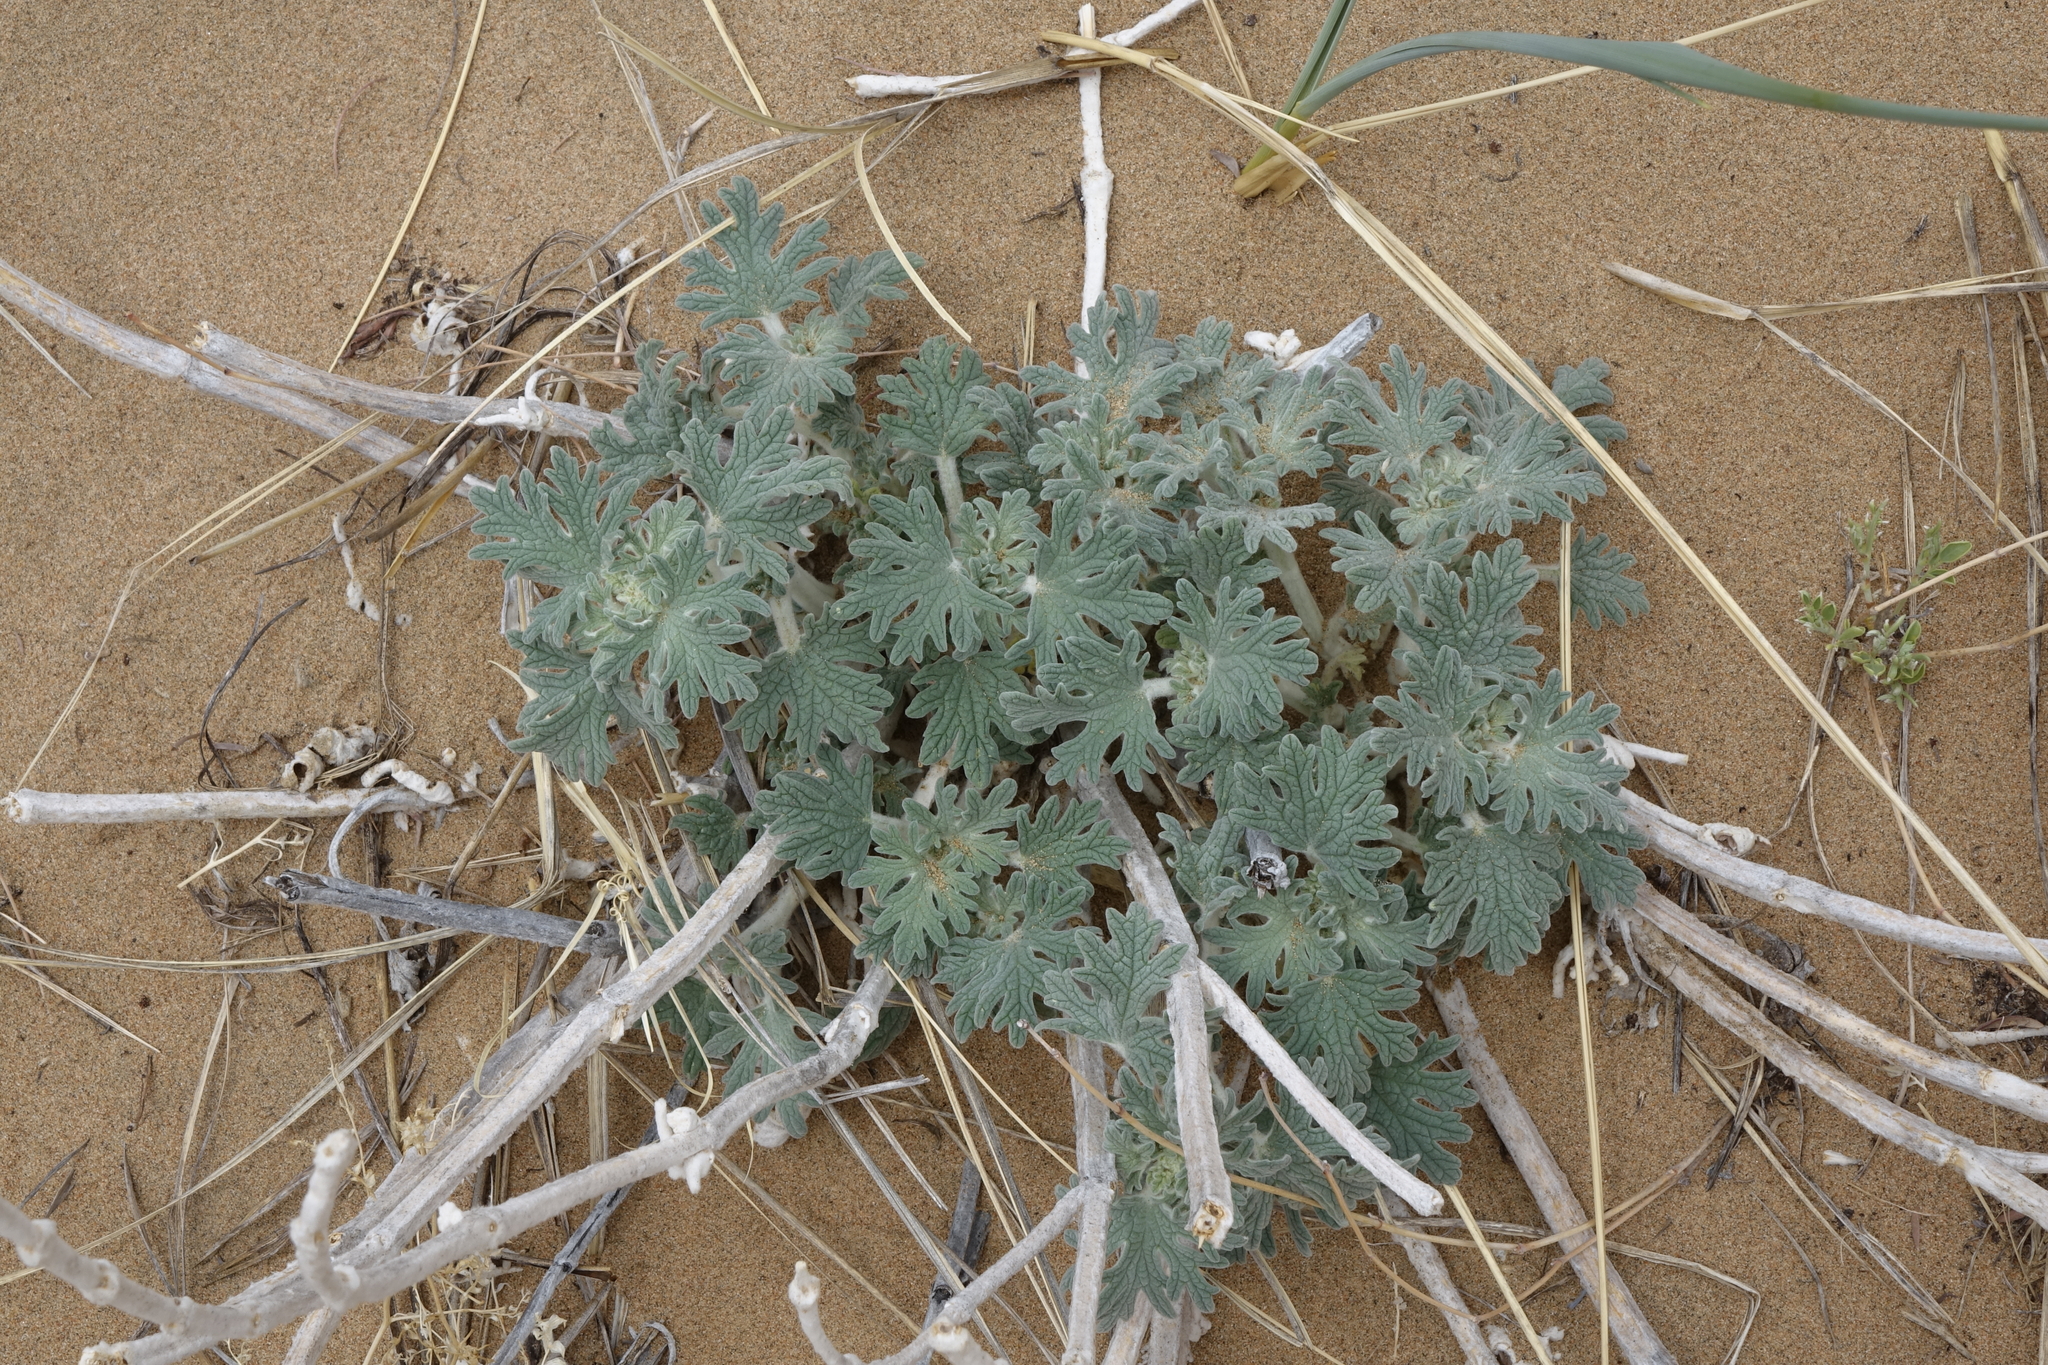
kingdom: Plantae
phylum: Tracheophyta
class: Magnoliopsida
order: Lamiales
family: Lamiaceae
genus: Panzerina
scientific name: Panzerina lanata
